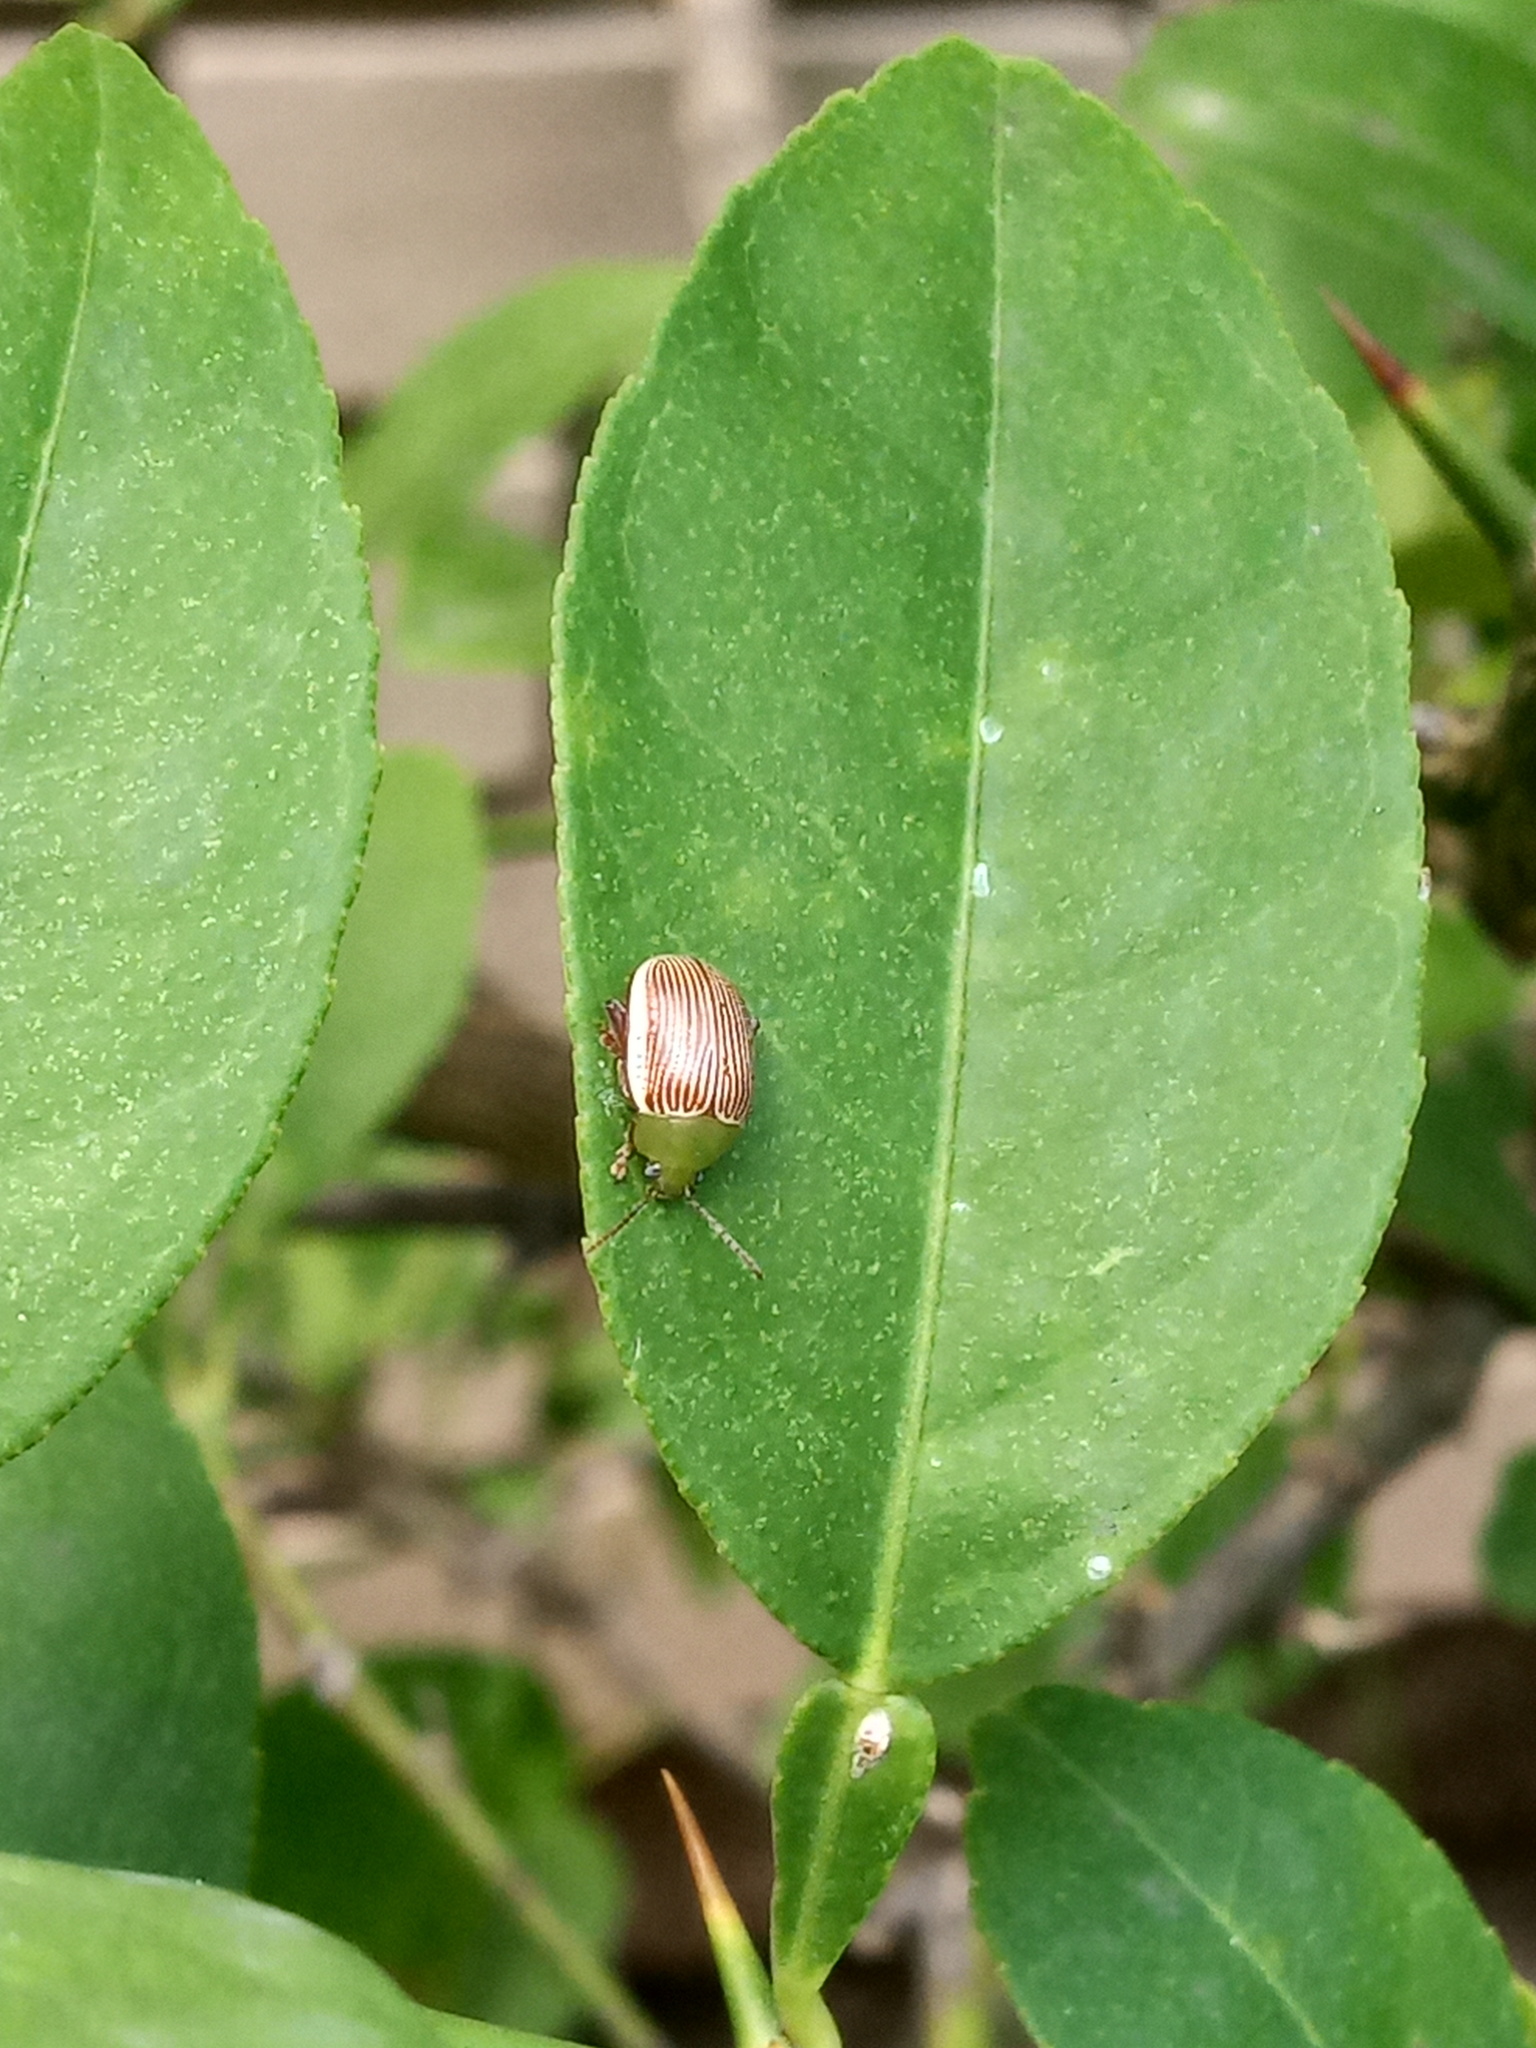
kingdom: Animalia
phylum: Arthropoda
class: Insecta
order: Coleoptera
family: Chrysomelidae
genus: Blepharida
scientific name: Blepharida rhois
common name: Sumac flea beetle
